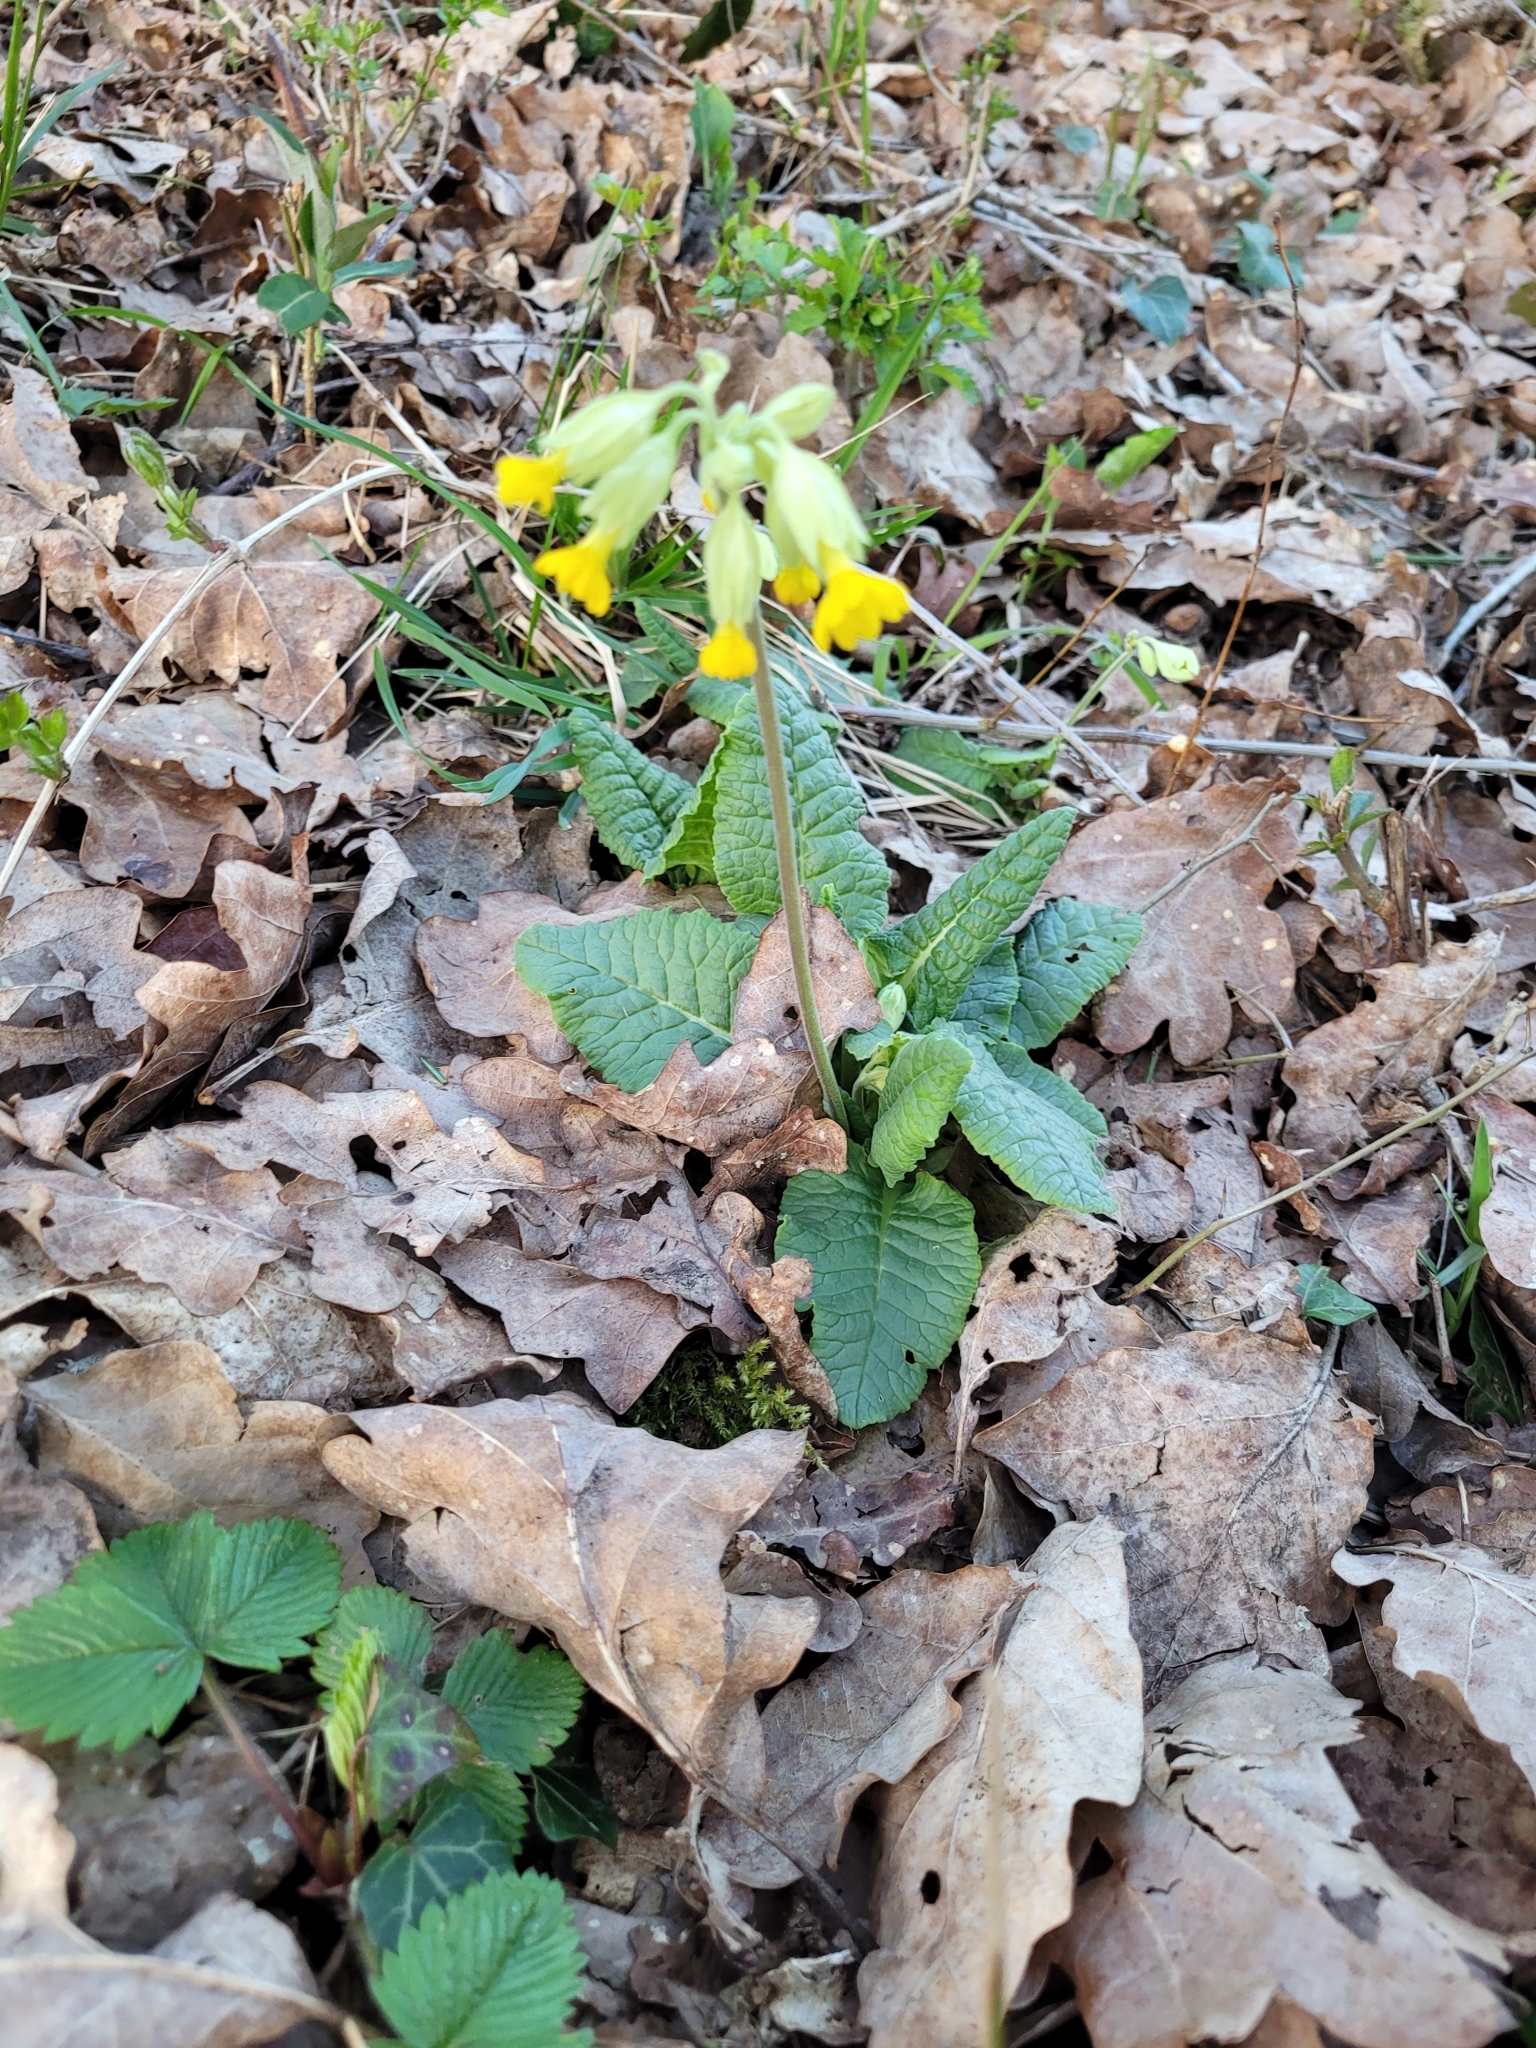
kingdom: Plantae
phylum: Tracheophyta
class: Magnoliopsida
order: Ericales
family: Primulaceae
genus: Primula
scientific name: Primula veris
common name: Cowslip
